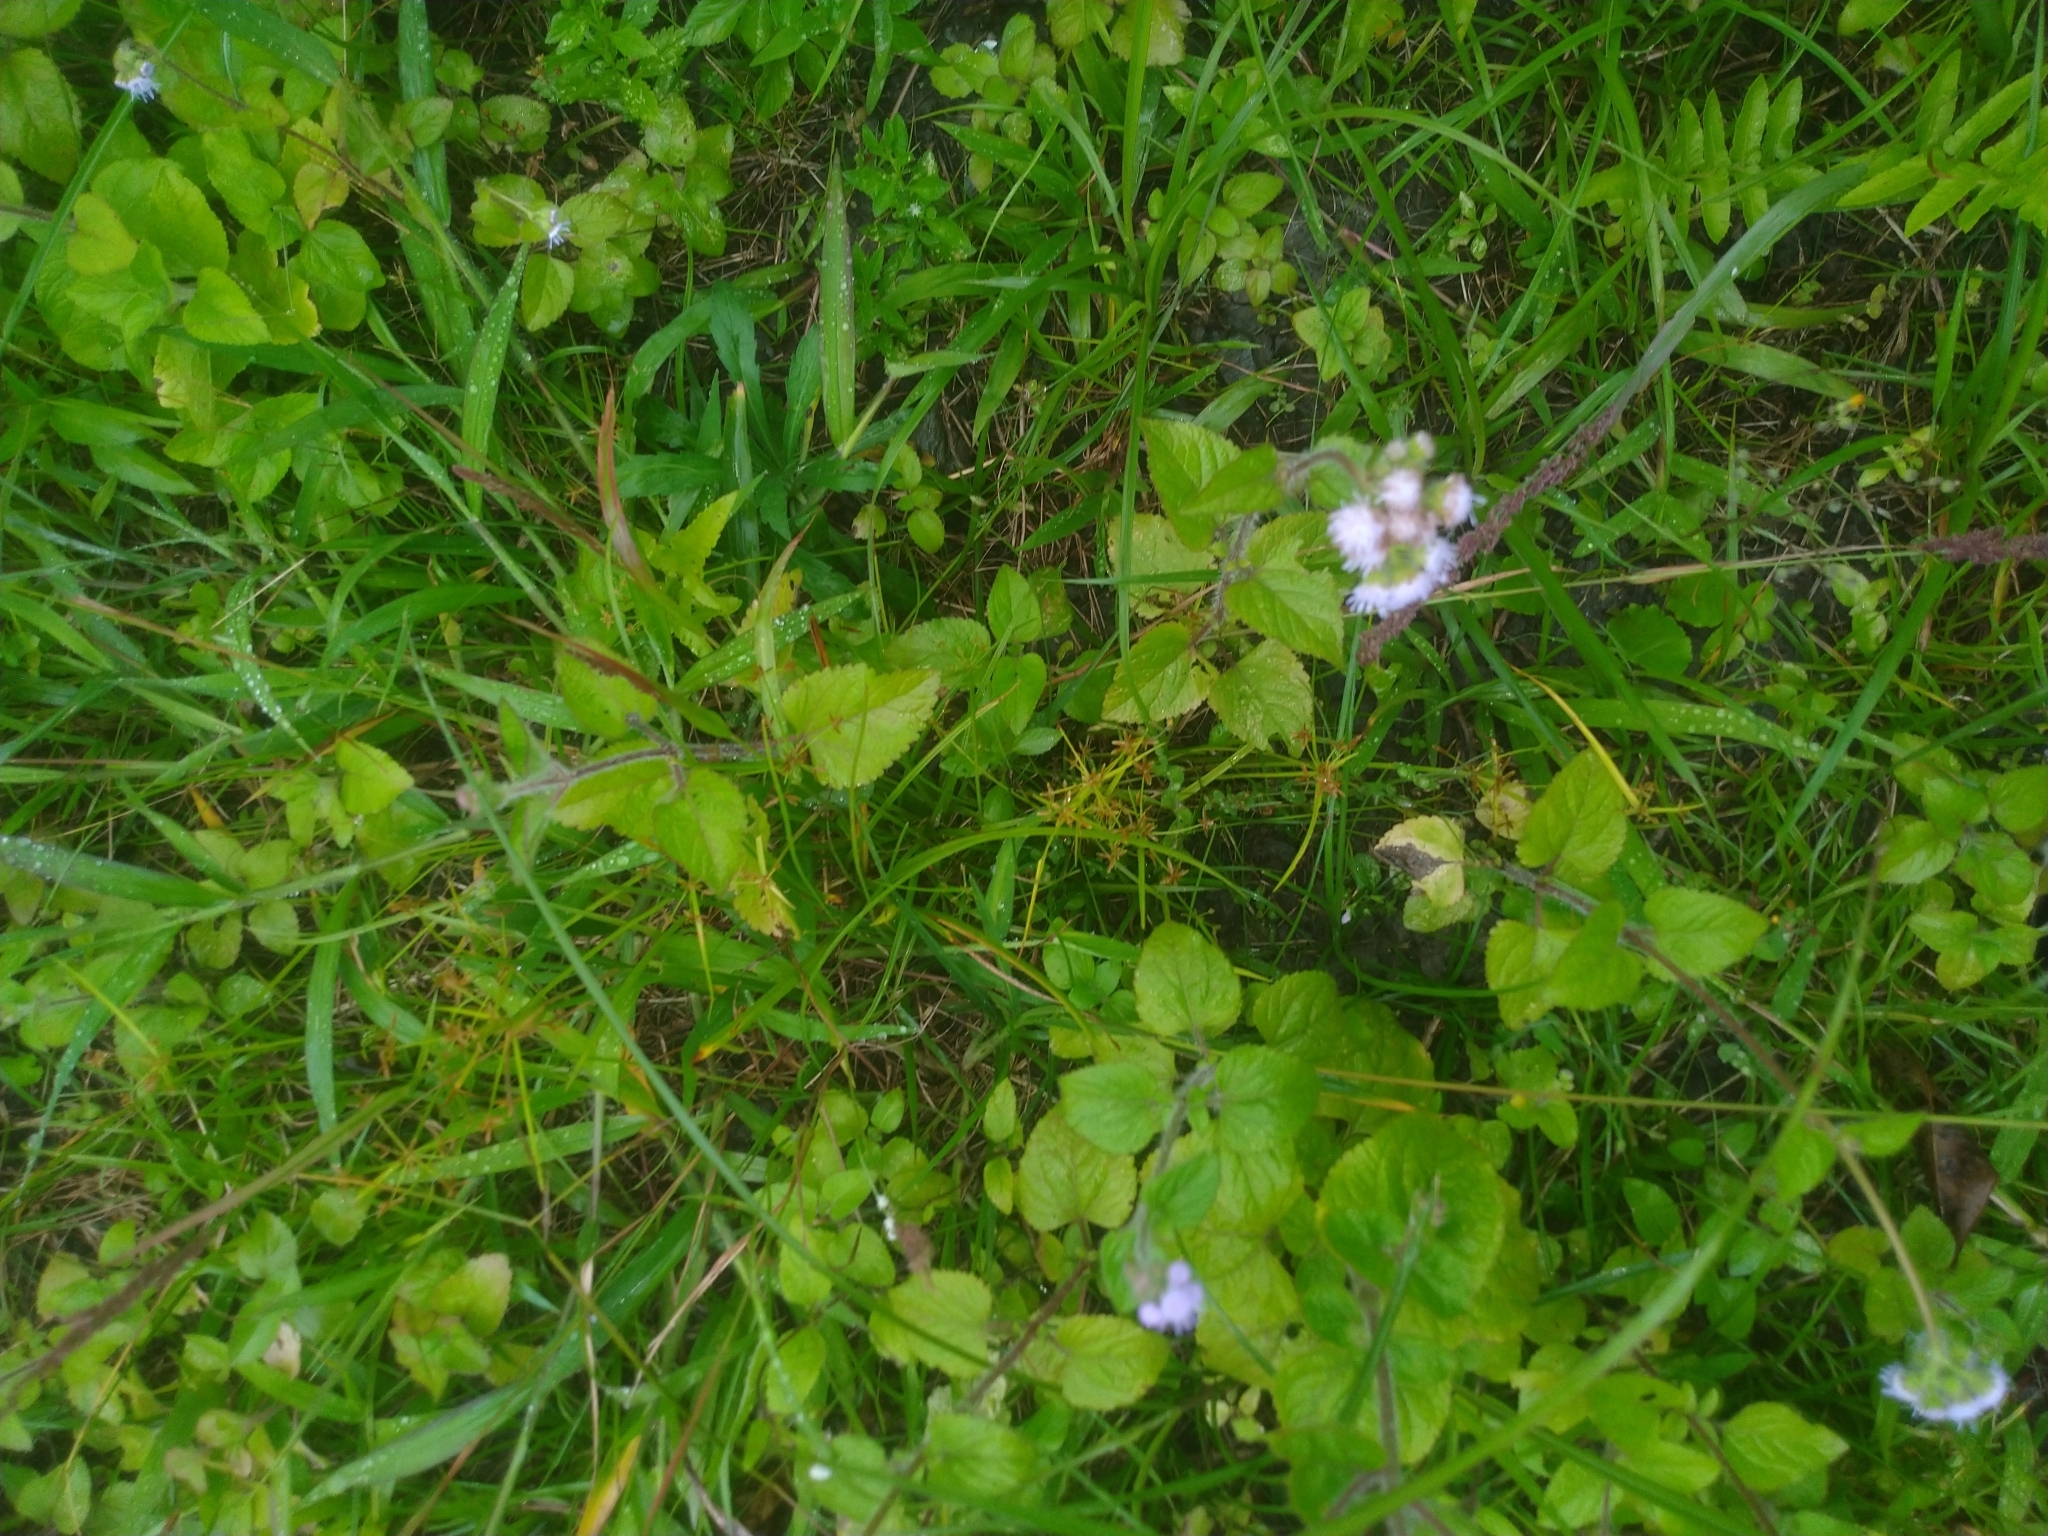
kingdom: Plantae
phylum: Tracheophyta
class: Liliopsida
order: Poales
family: Cyperaceae
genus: Cyperus
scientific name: Cyperus haspan
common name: Haspan flatsedge
